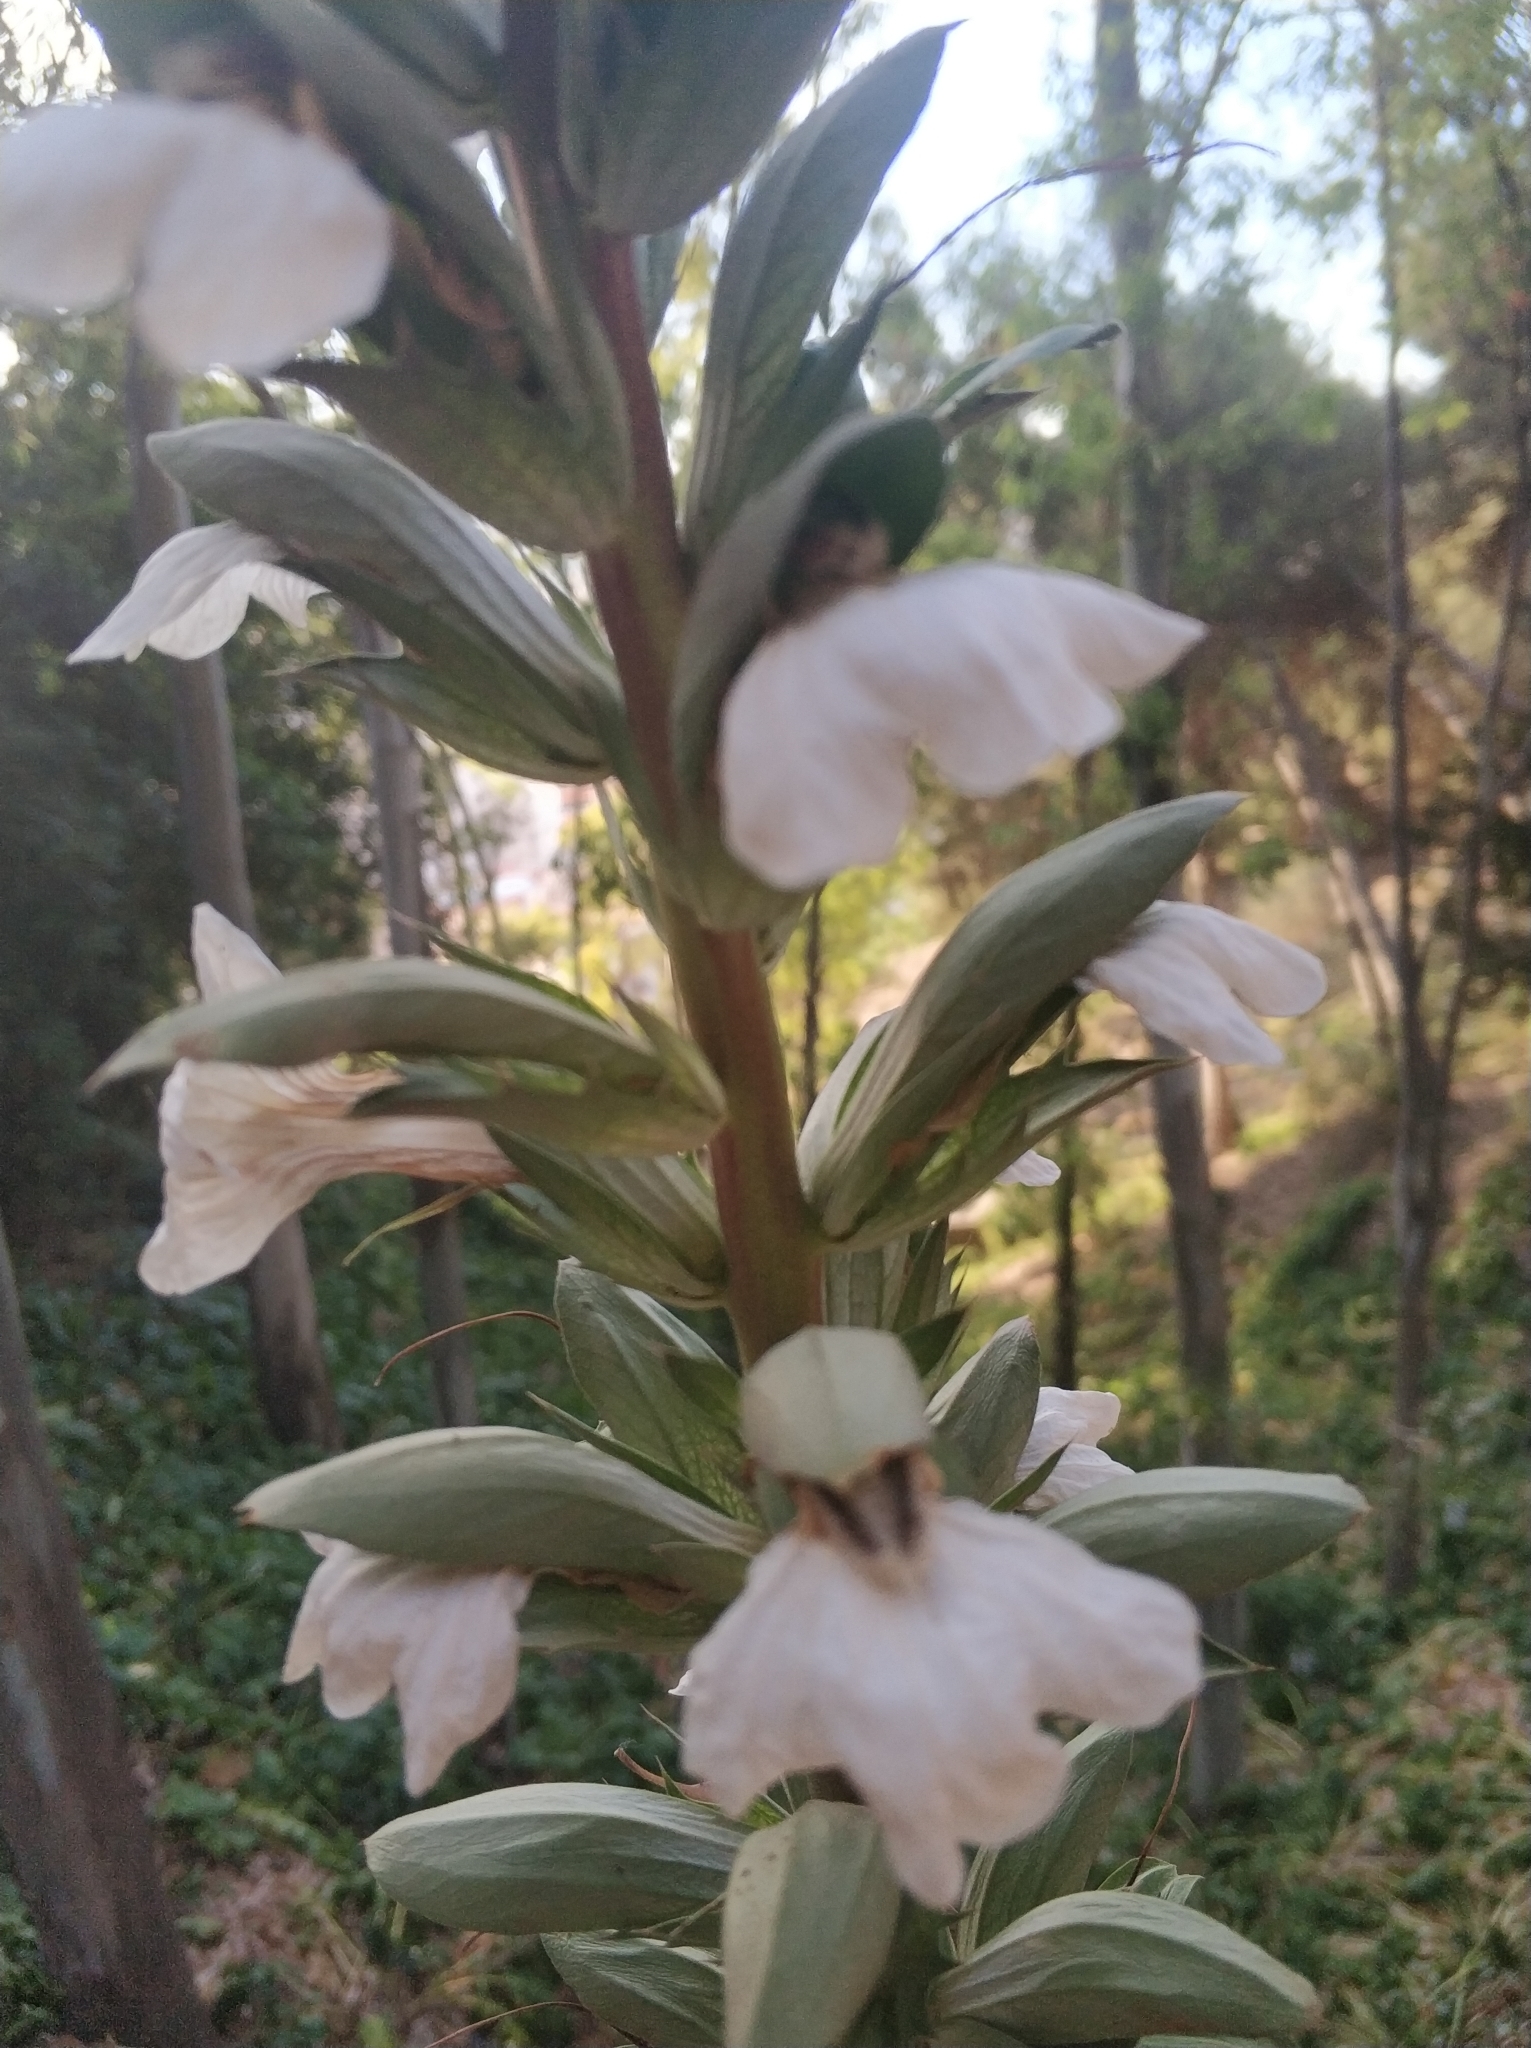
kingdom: Plantae
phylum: Tracheophyta
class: Magnoliopsida
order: Lamiales
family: Acanthaceae
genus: Acanthus
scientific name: Acanthus mollis
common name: Bear's-breech
